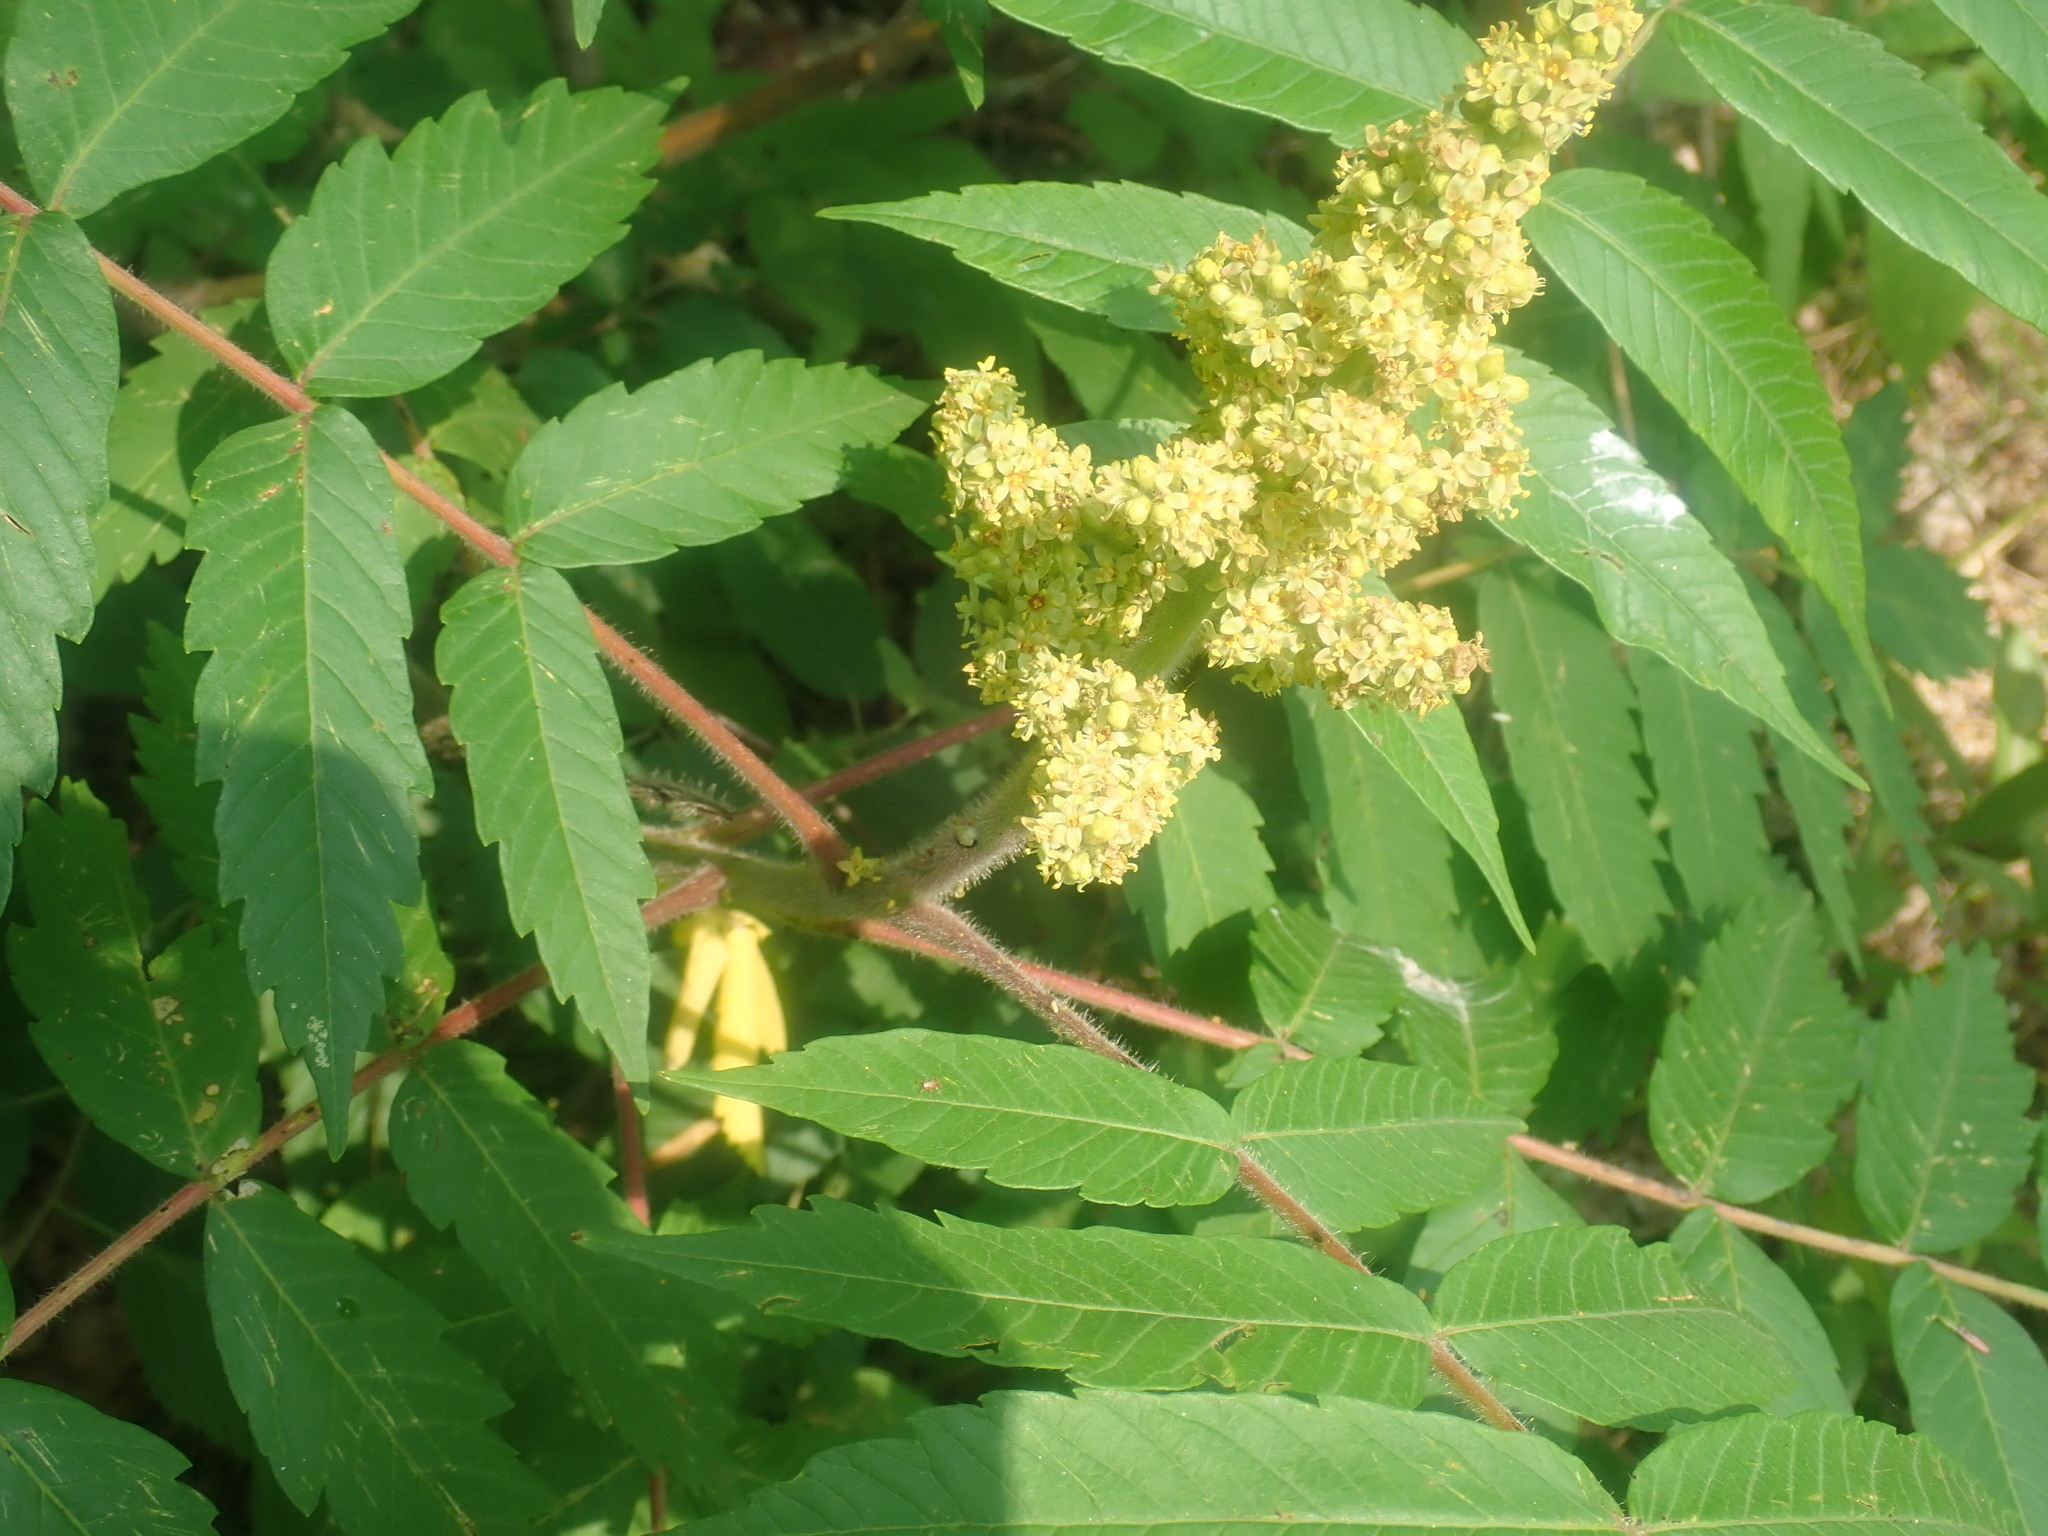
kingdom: Plantae
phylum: Tracheophyta
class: Magnoliopsida
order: Sapindales
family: Anacardiaceae
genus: Rhus
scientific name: Rhus typhina
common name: Staghorn sumac
